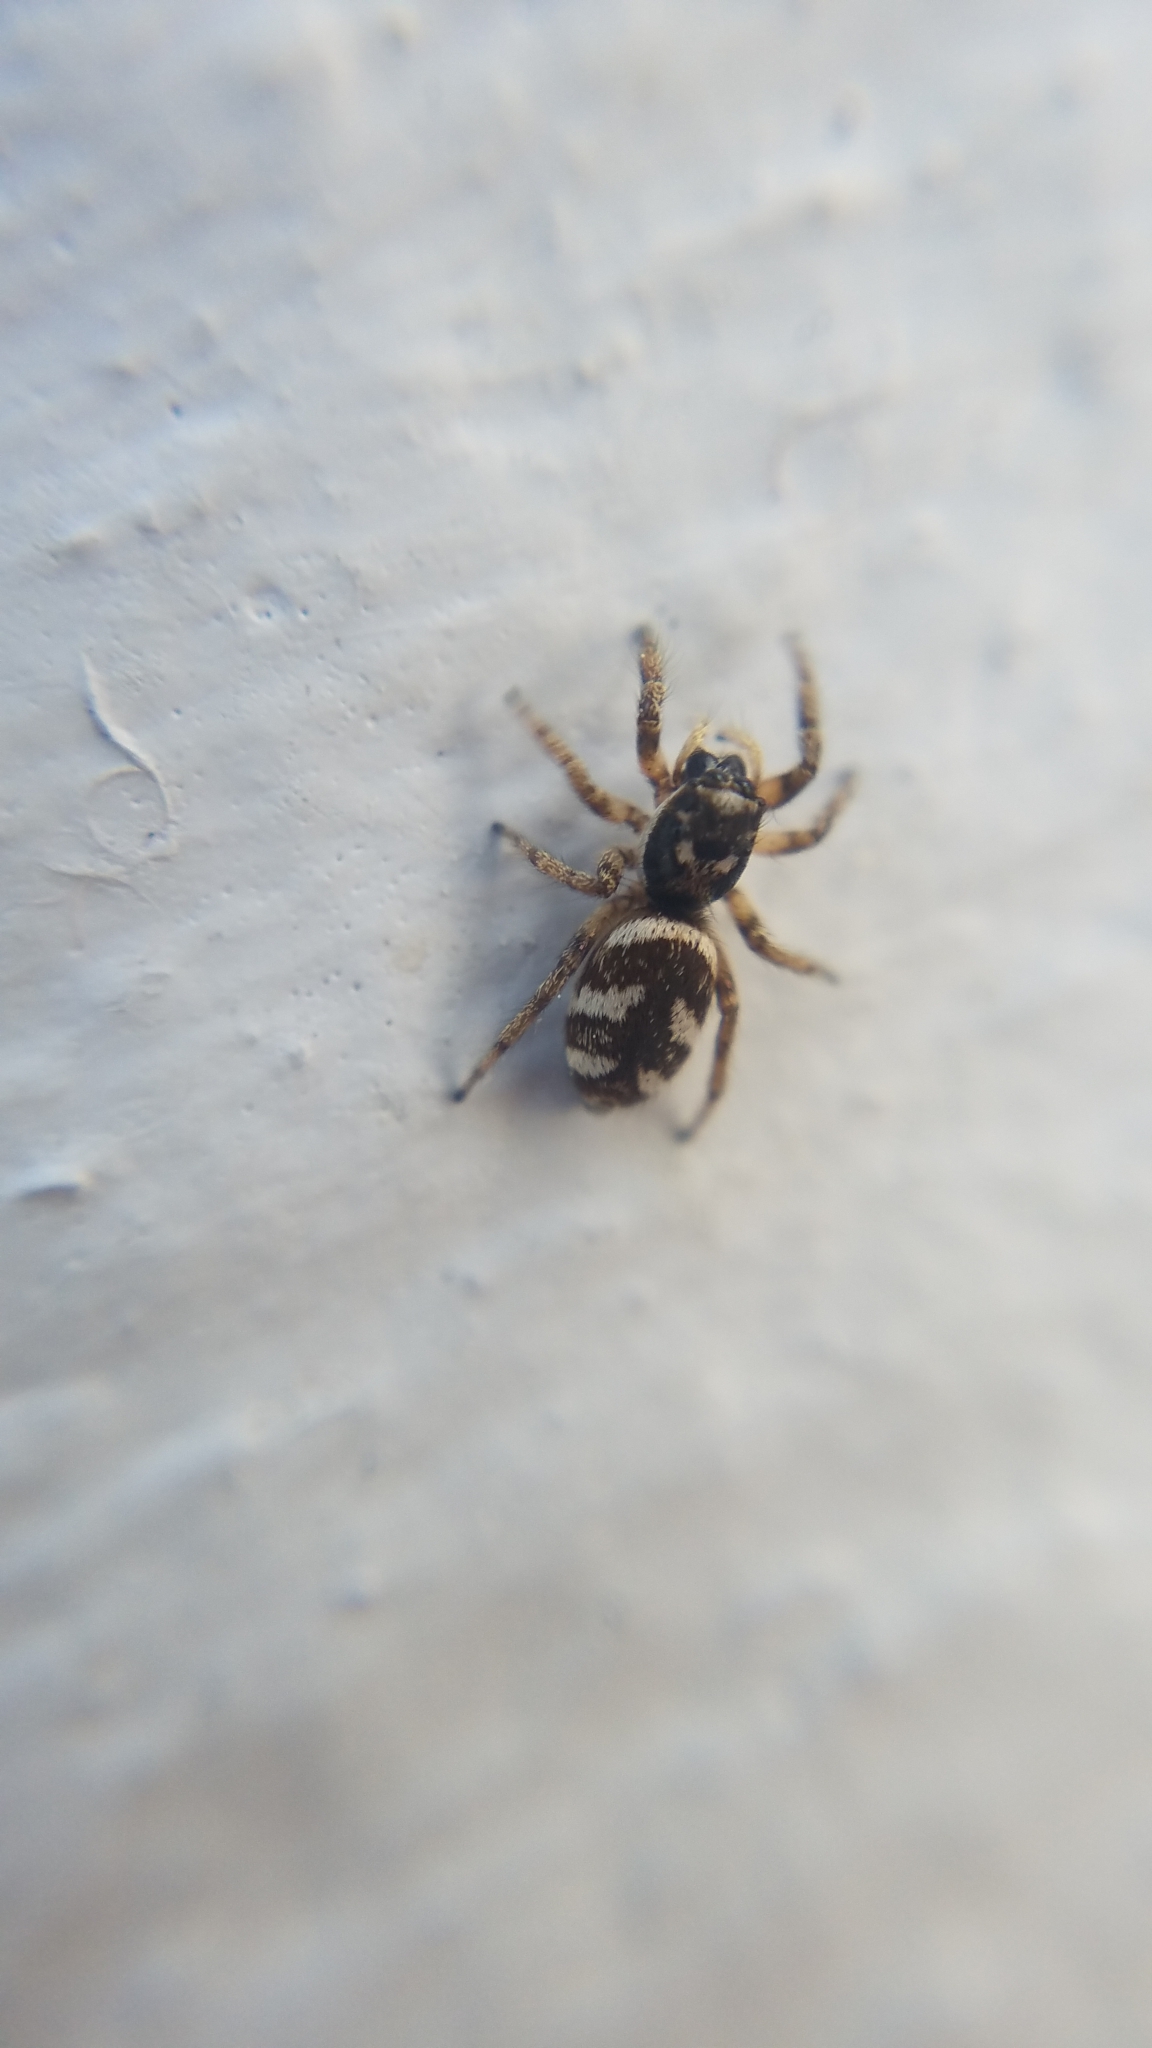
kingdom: Animalia
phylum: Arthropoda
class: Arachnida
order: Araneae
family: Salticidae
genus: Salticus
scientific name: Salticus scenicus
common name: Zebra jumper
